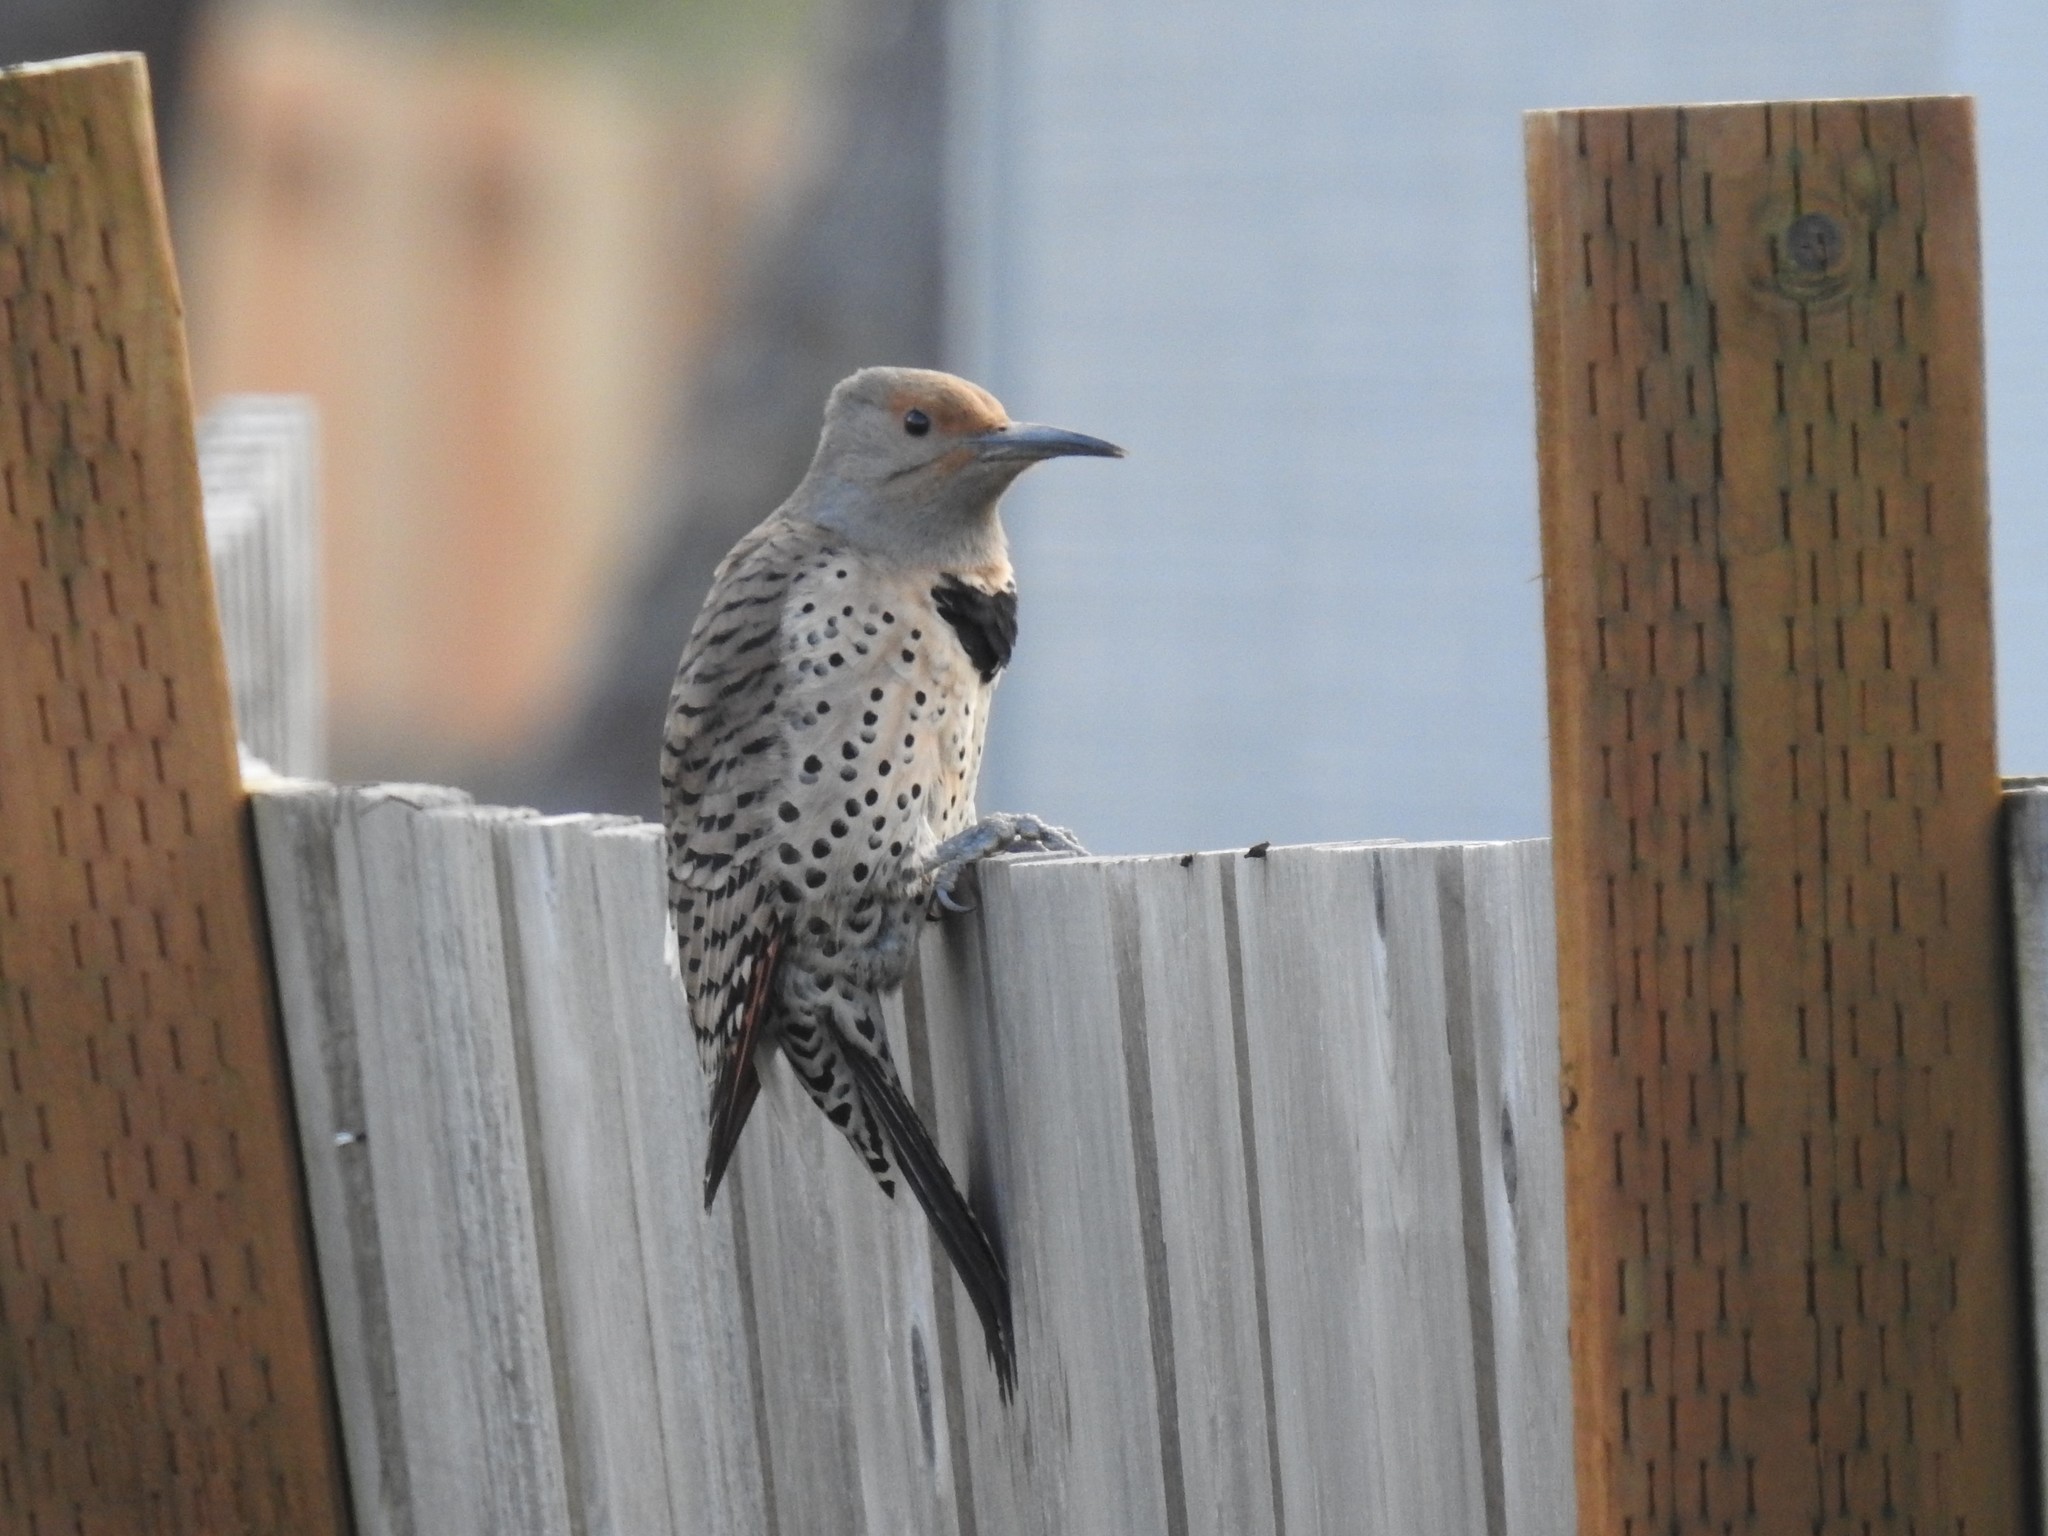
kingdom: Animalia
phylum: Chordata
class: Aves
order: Piciformes
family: Picidae
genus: Colaptes
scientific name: Colaptes auratus
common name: Northern flicker
